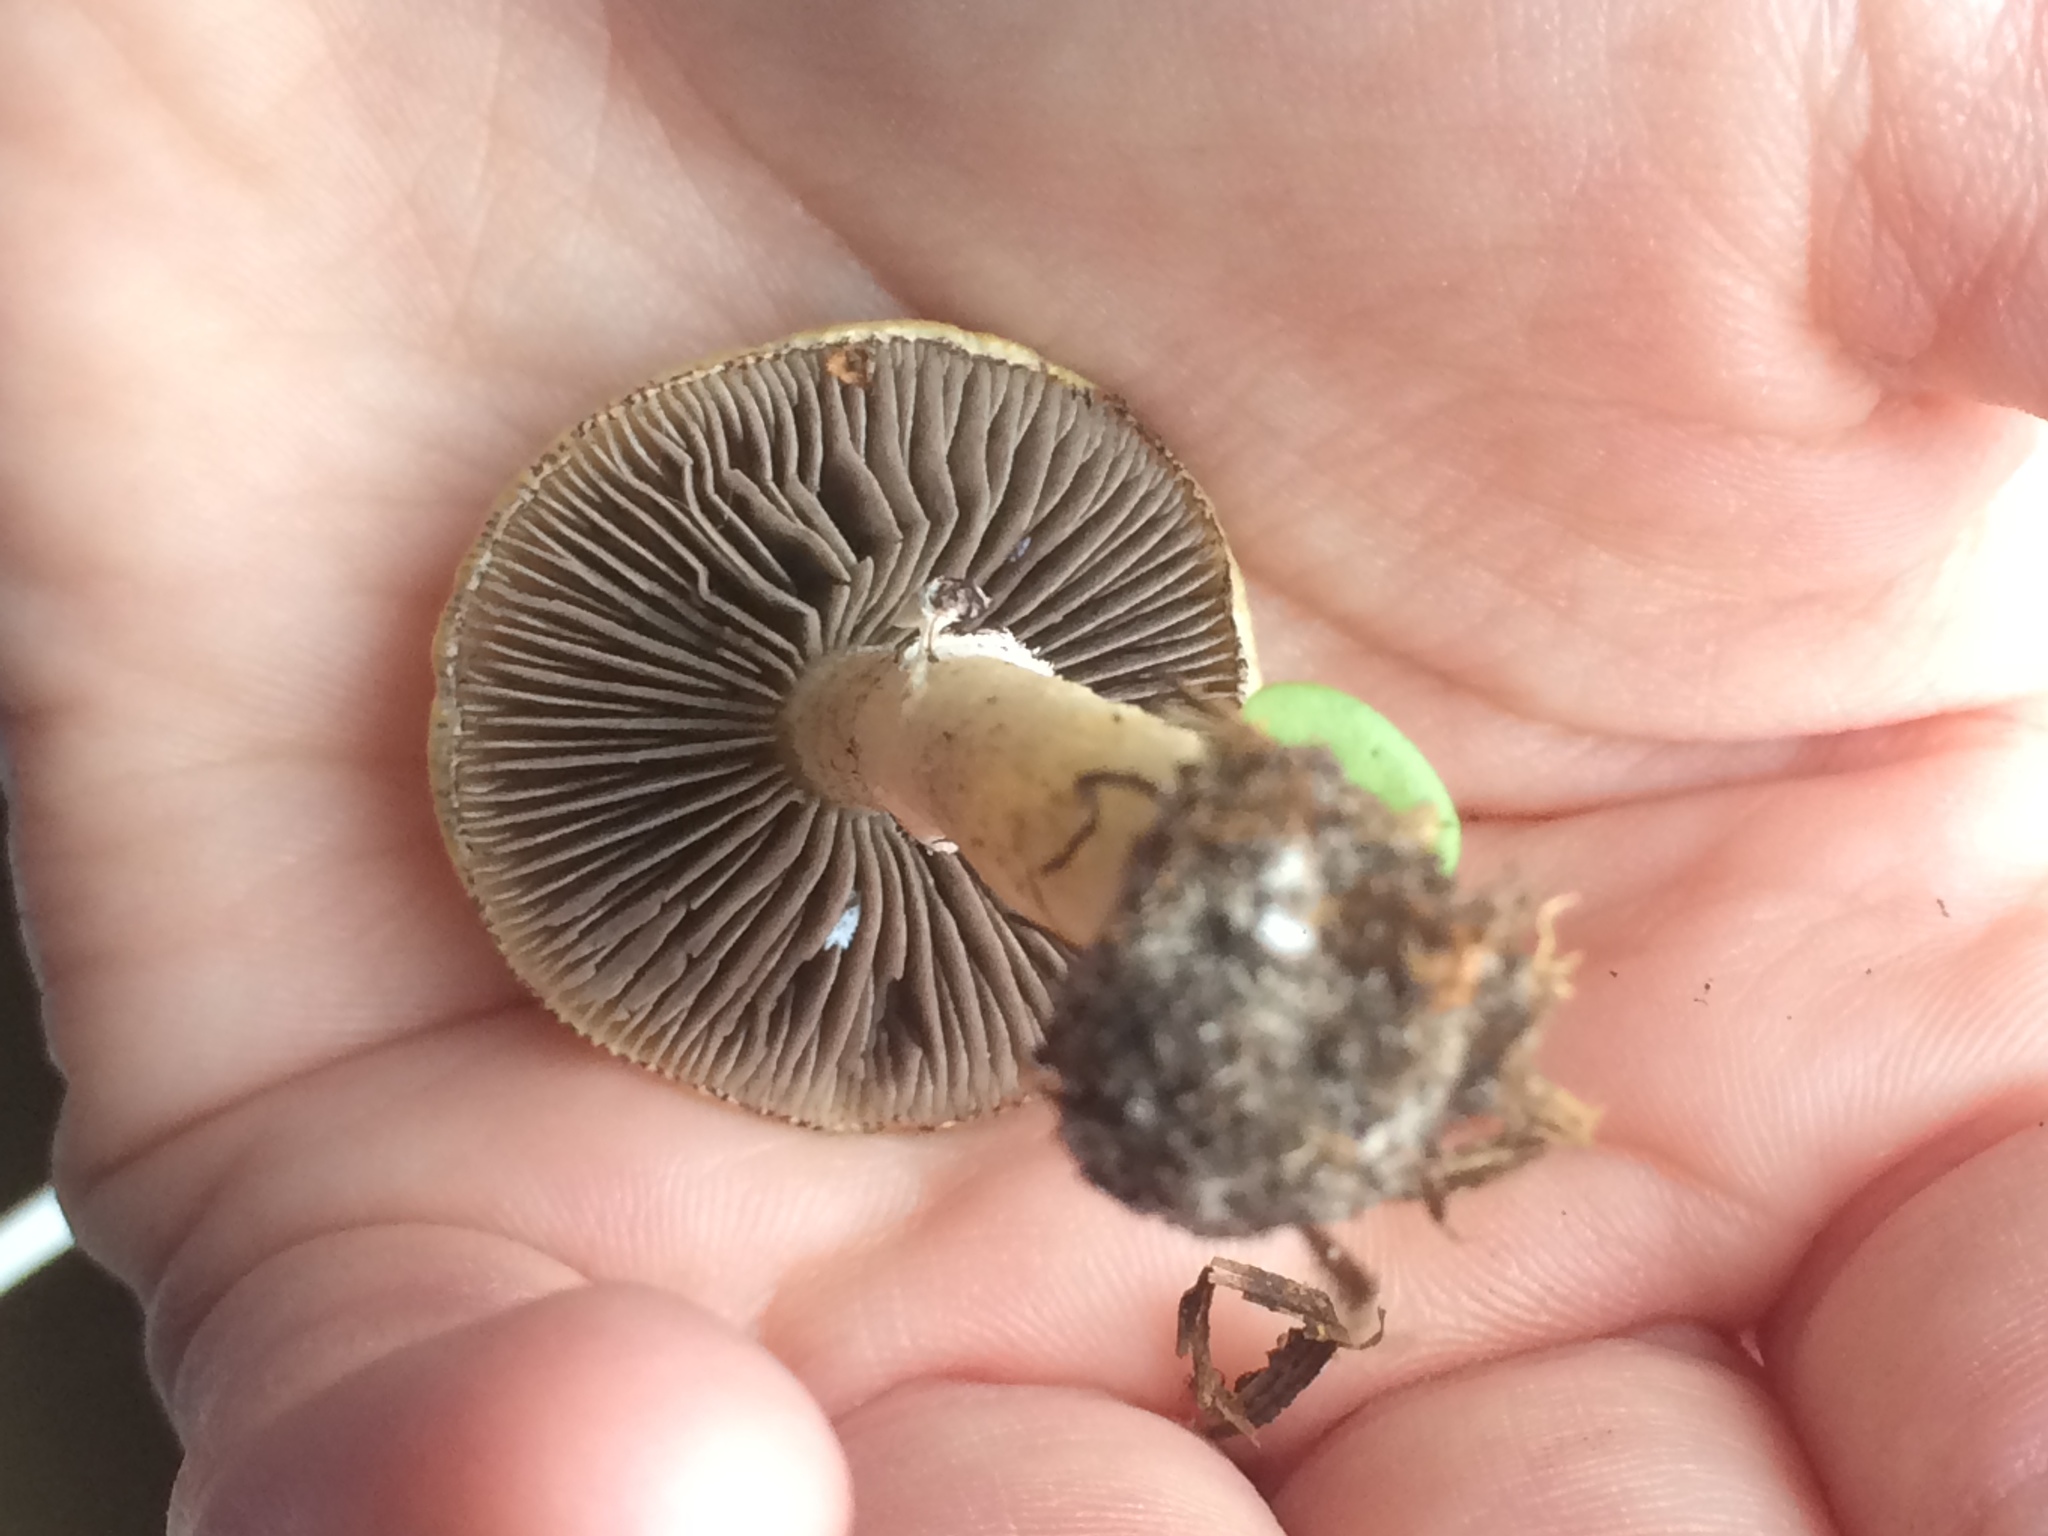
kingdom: Fungi
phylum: Basidiomycota
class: Agaricomycetes
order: Agaricales
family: Hymenogastraceae
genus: Psilocybe
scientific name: Psilocybe coronilla
